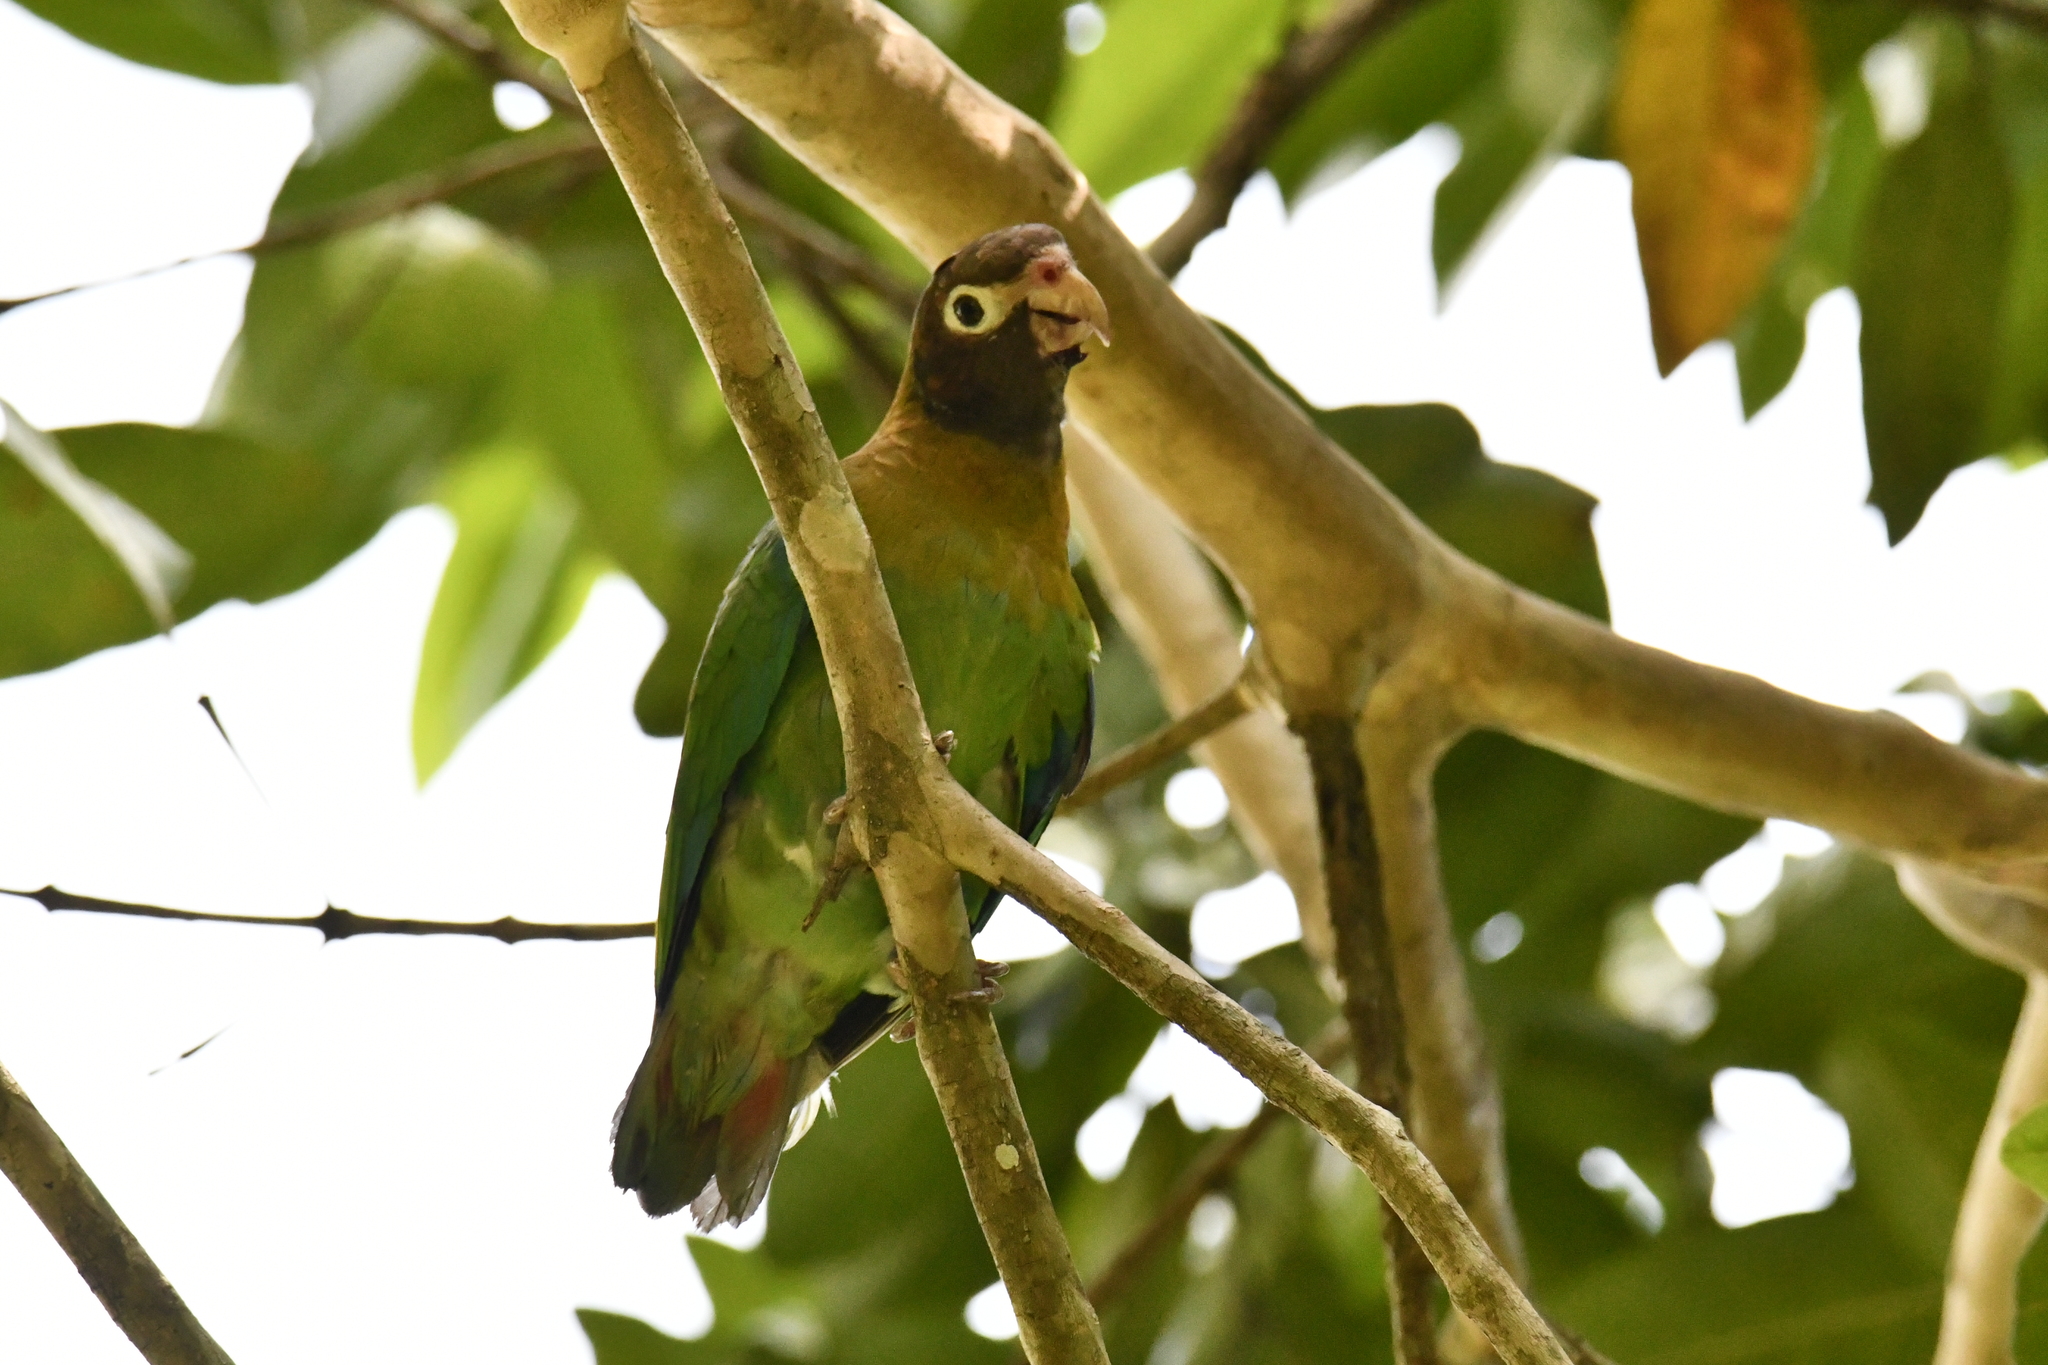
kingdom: Animalia
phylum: Chordata
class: Aves
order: Psittaciformes
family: Psittacidae
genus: Pionopsitta
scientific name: Pionopsitta haematotis
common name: Brown-hooded parrot
